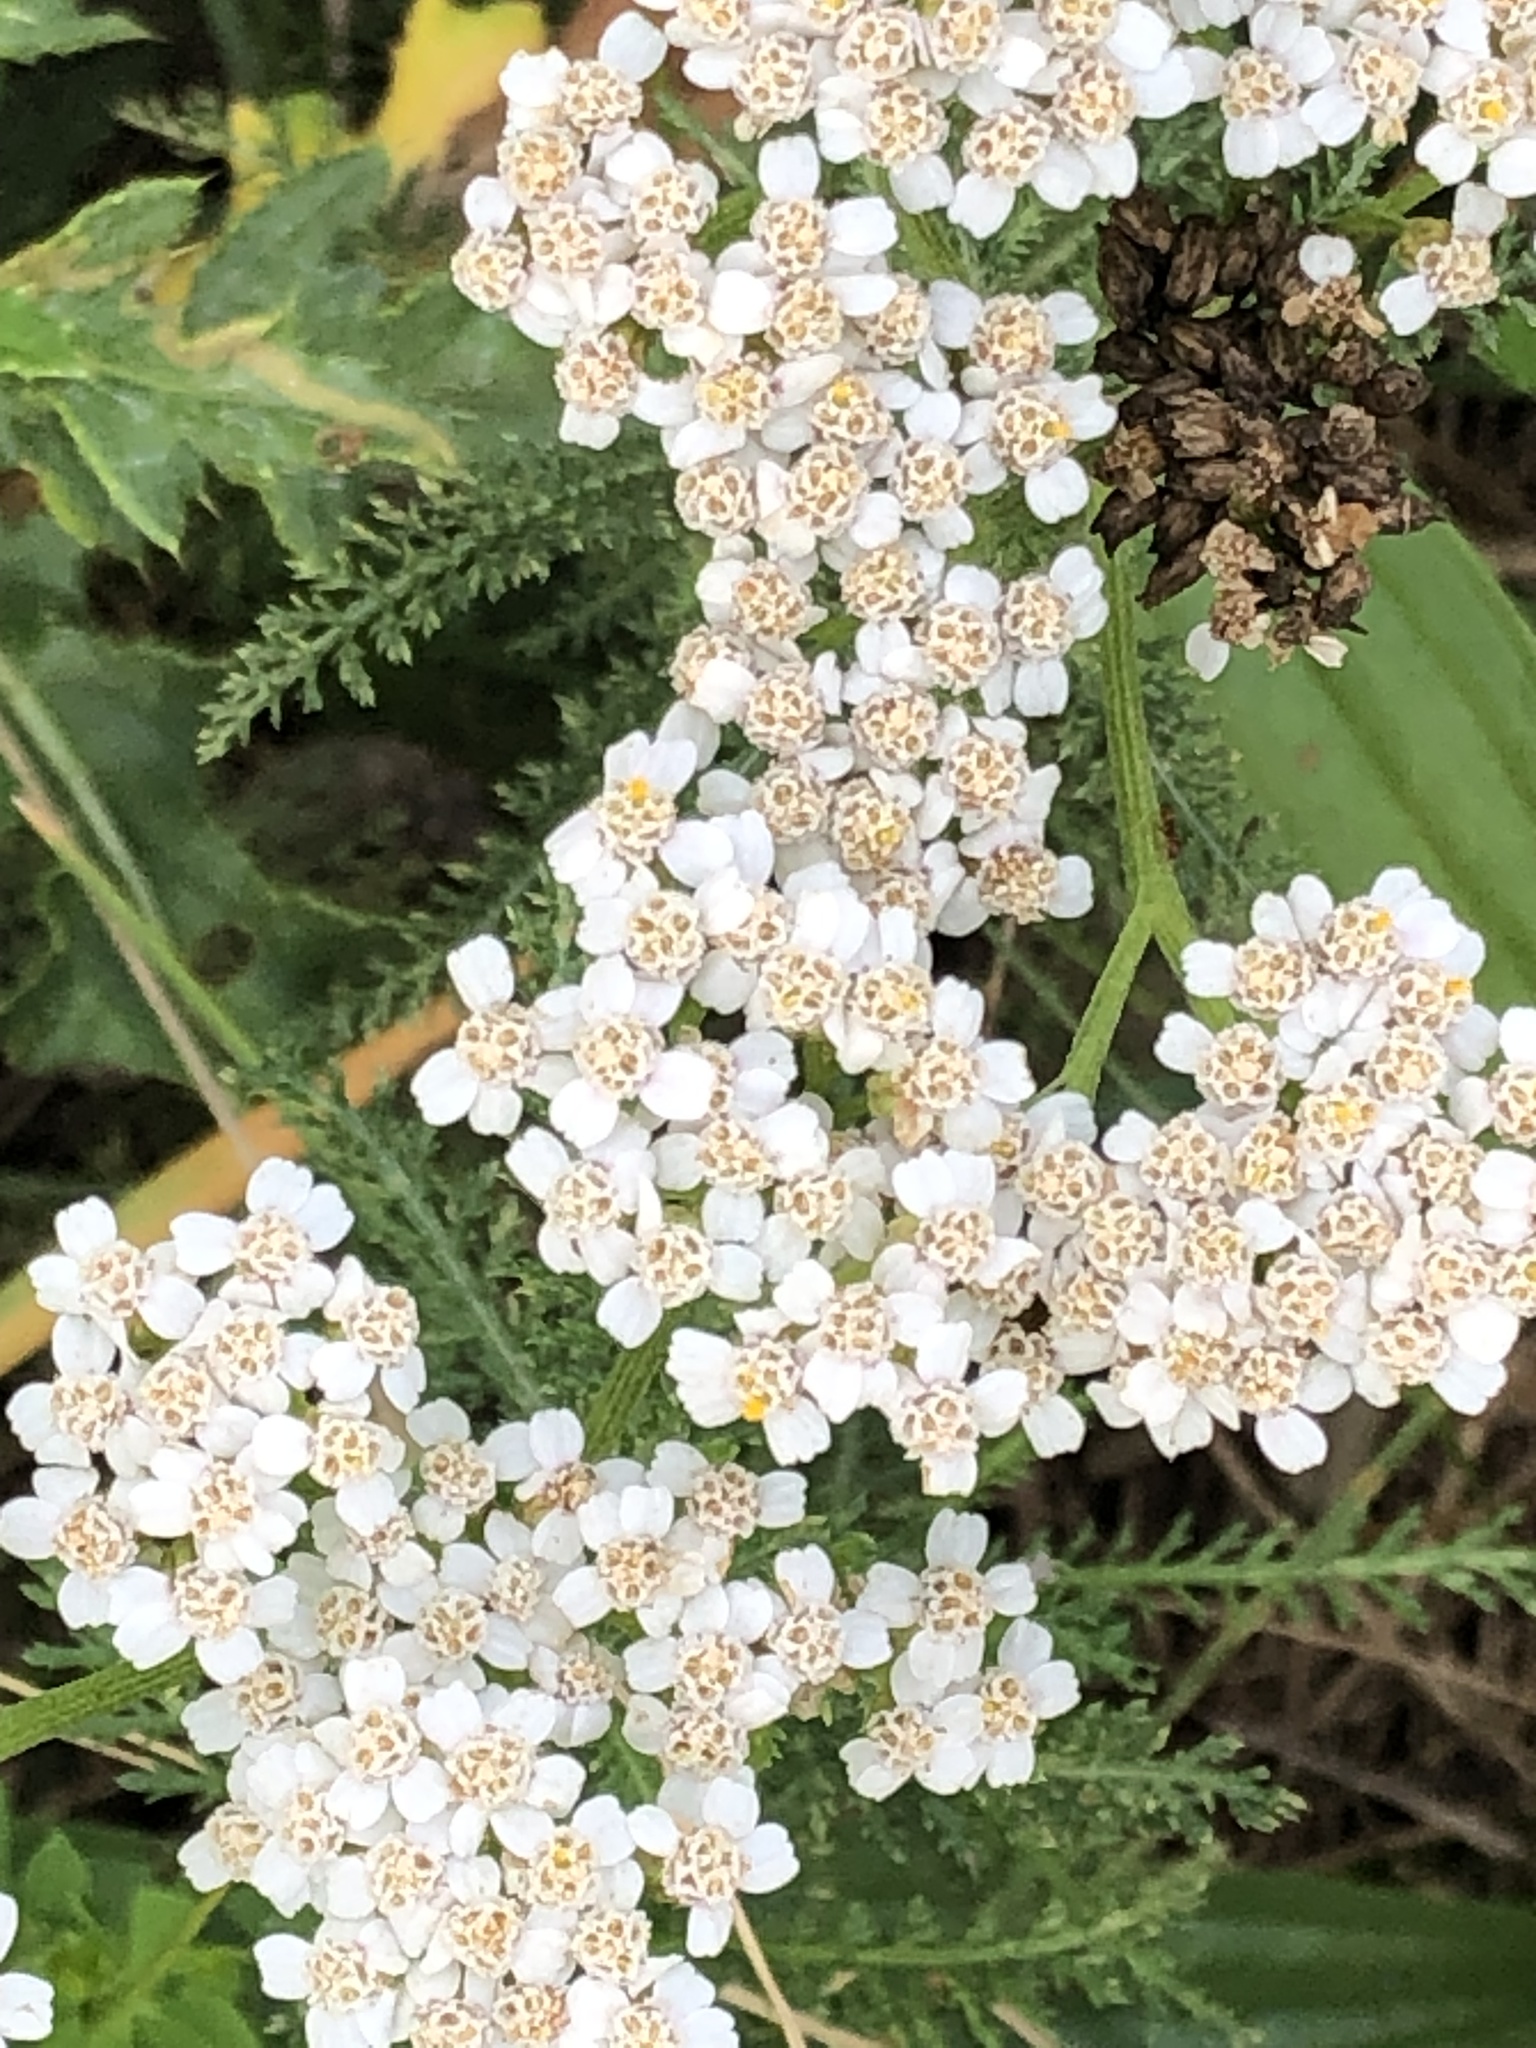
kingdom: Plantae
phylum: Tracheophyta
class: Magnoliopsida
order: Asterales
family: Asteraceae
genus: Achillea
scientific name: Achillea millefolium
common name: Yarrow
